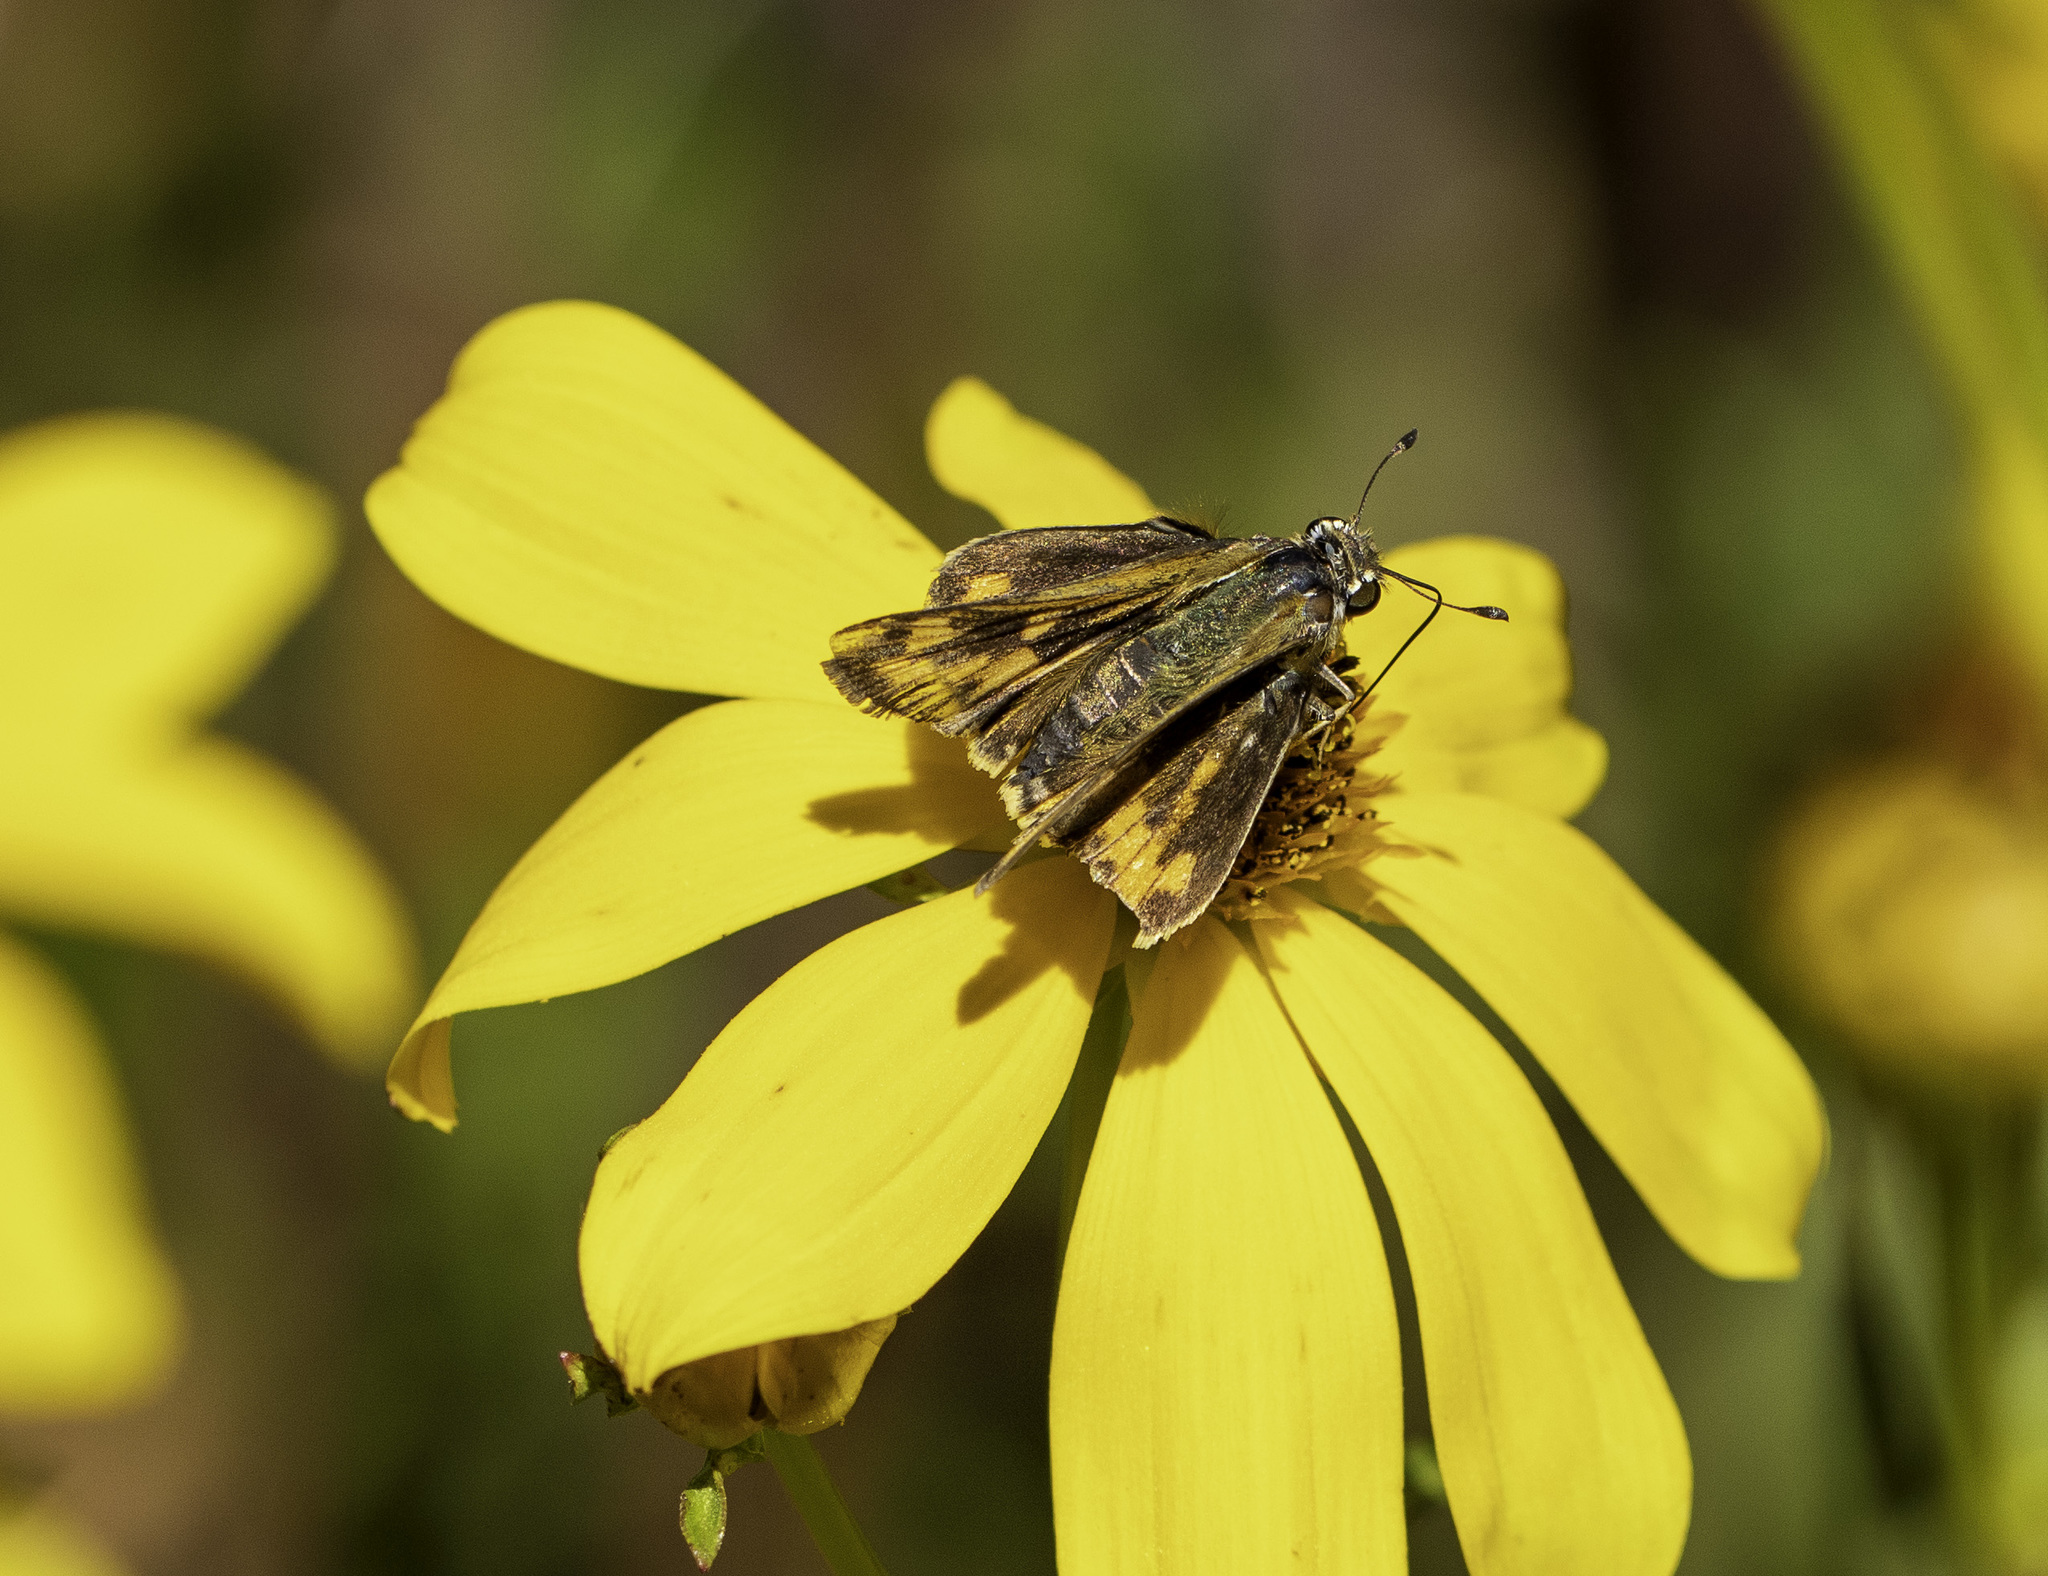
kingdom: Animalia
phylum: Arthropoda
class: Insecta
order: Lepidoptera
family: Hesperiidae
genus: Hylephila
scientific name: Hylephila phyleus
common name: Fiery skipper
